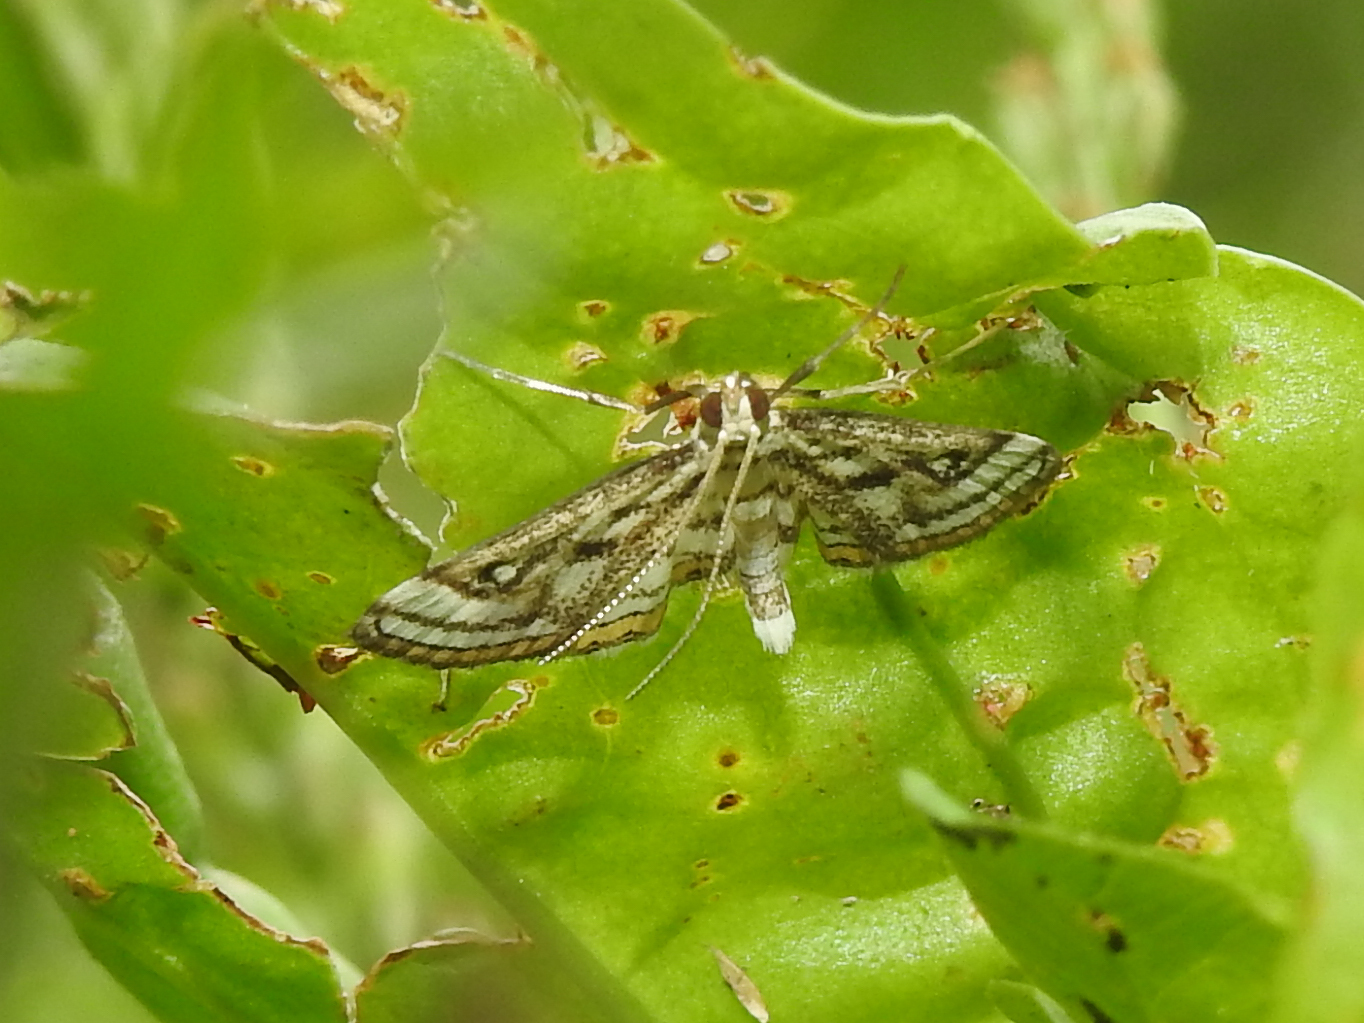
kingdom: Animalia
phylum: Arthropoda
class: Insecta
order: Lepidoptera
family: Crambidae
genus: Parapoynx
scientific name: Parapoynx badiusalis
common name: Chestnut-marked pondweed moth
